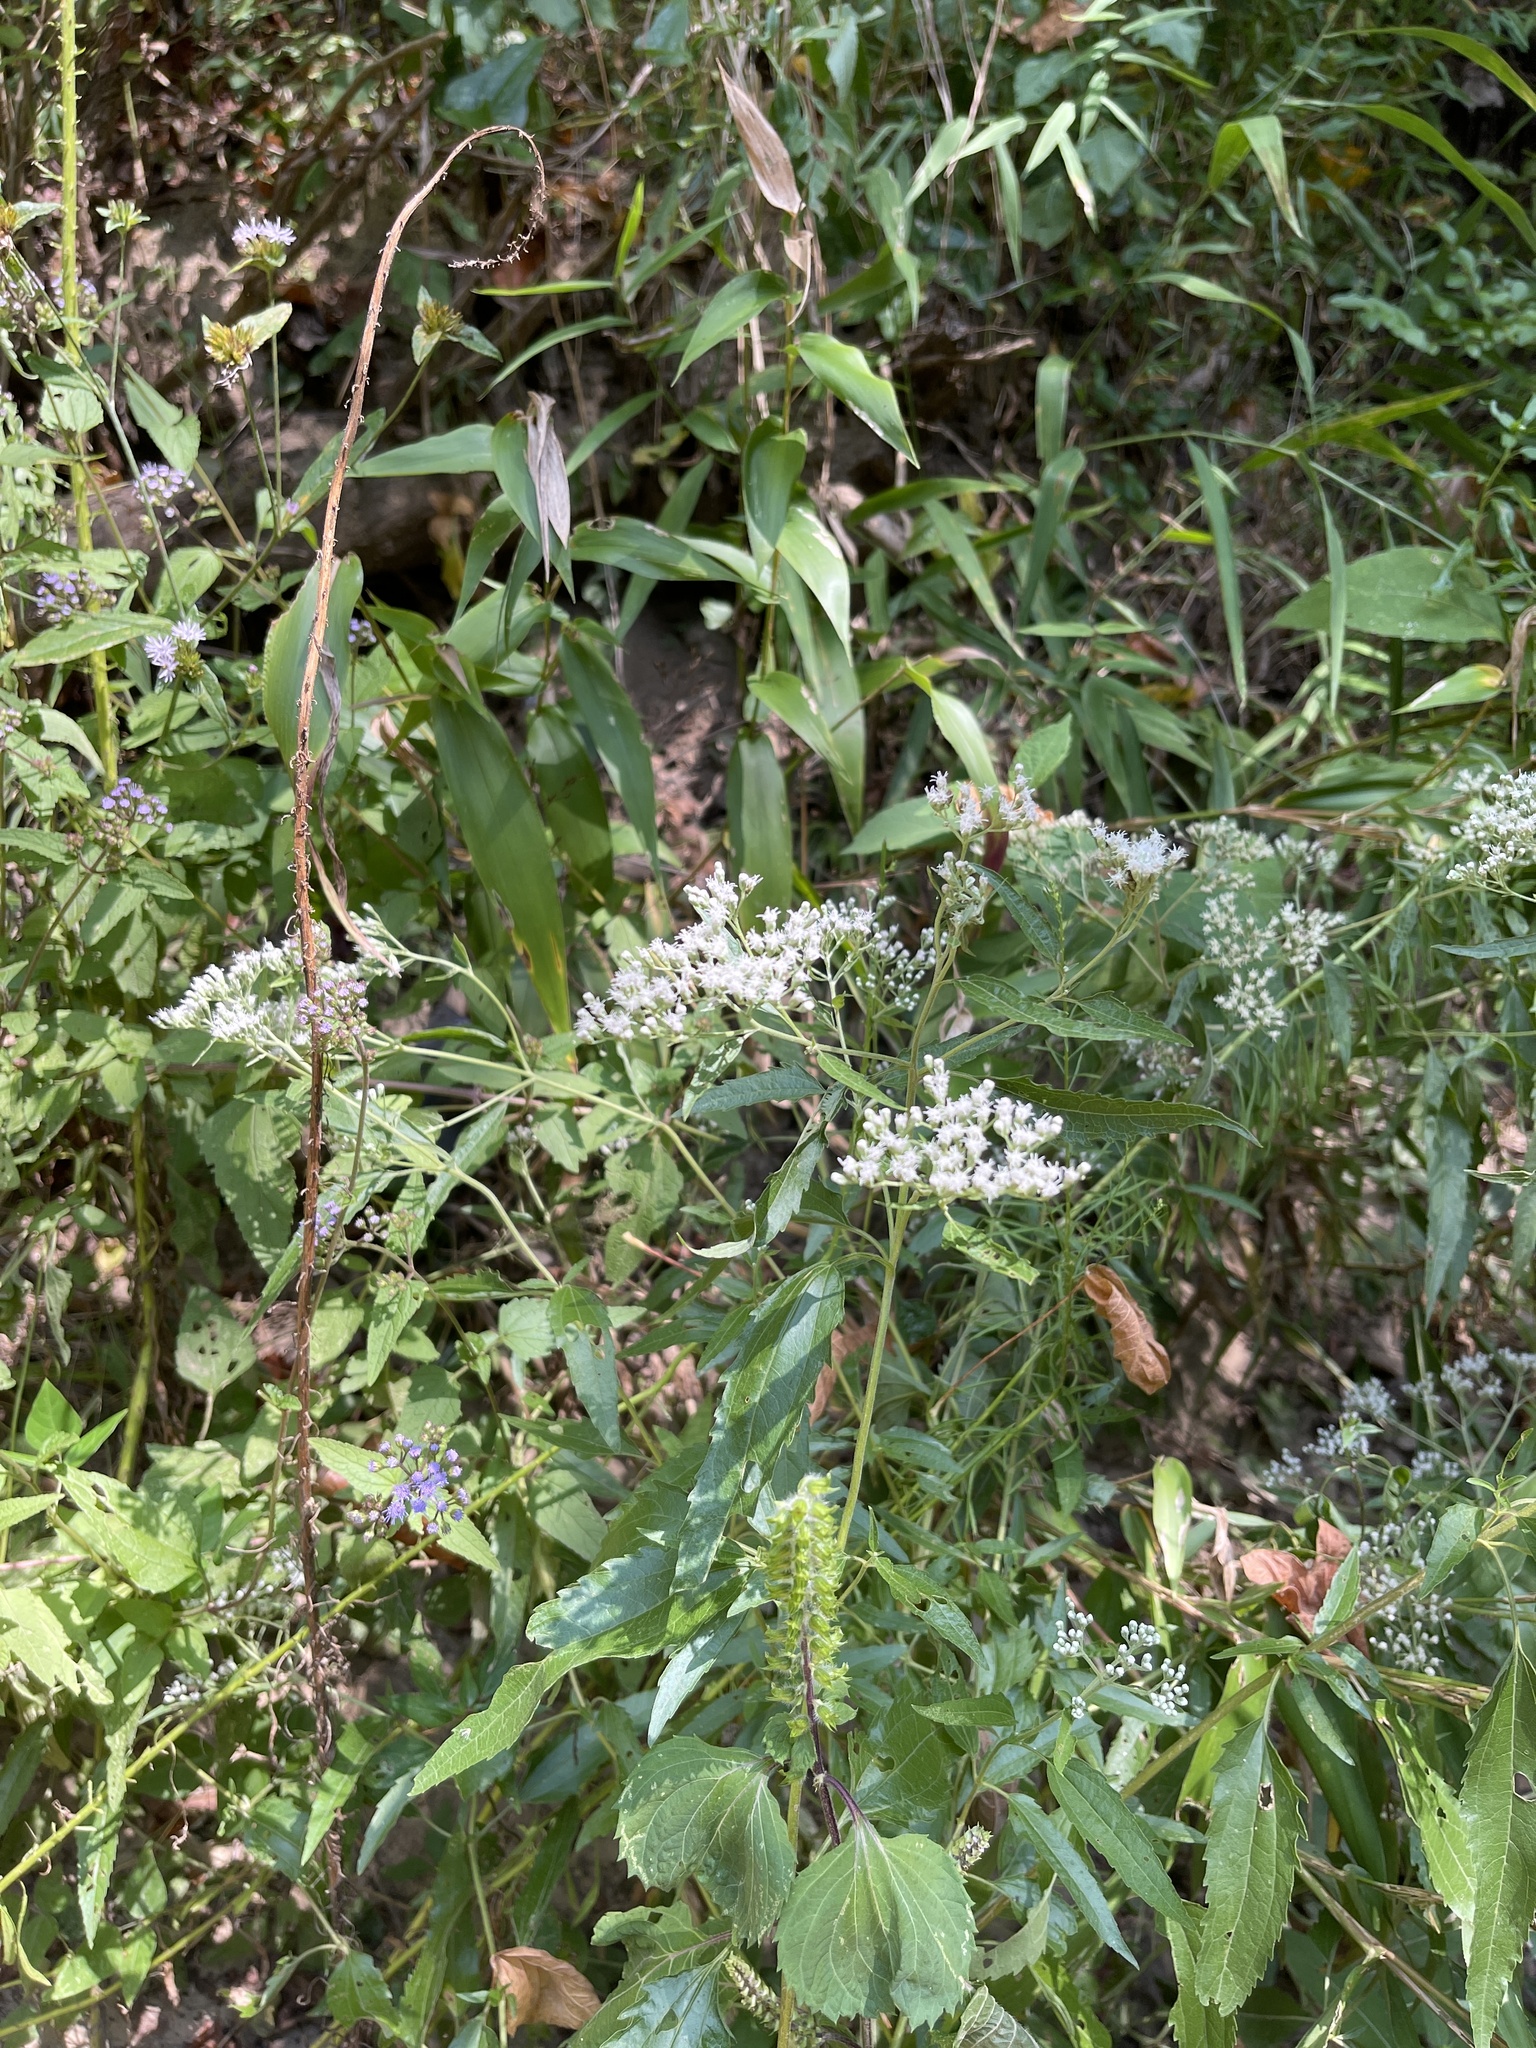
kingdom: Plantae
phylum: Tracheophyta
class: Magnoliopsida
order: Asterales
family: Asteraceae
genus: Eupatorium
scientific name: Eupatorium serotinum
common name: Late boneset
